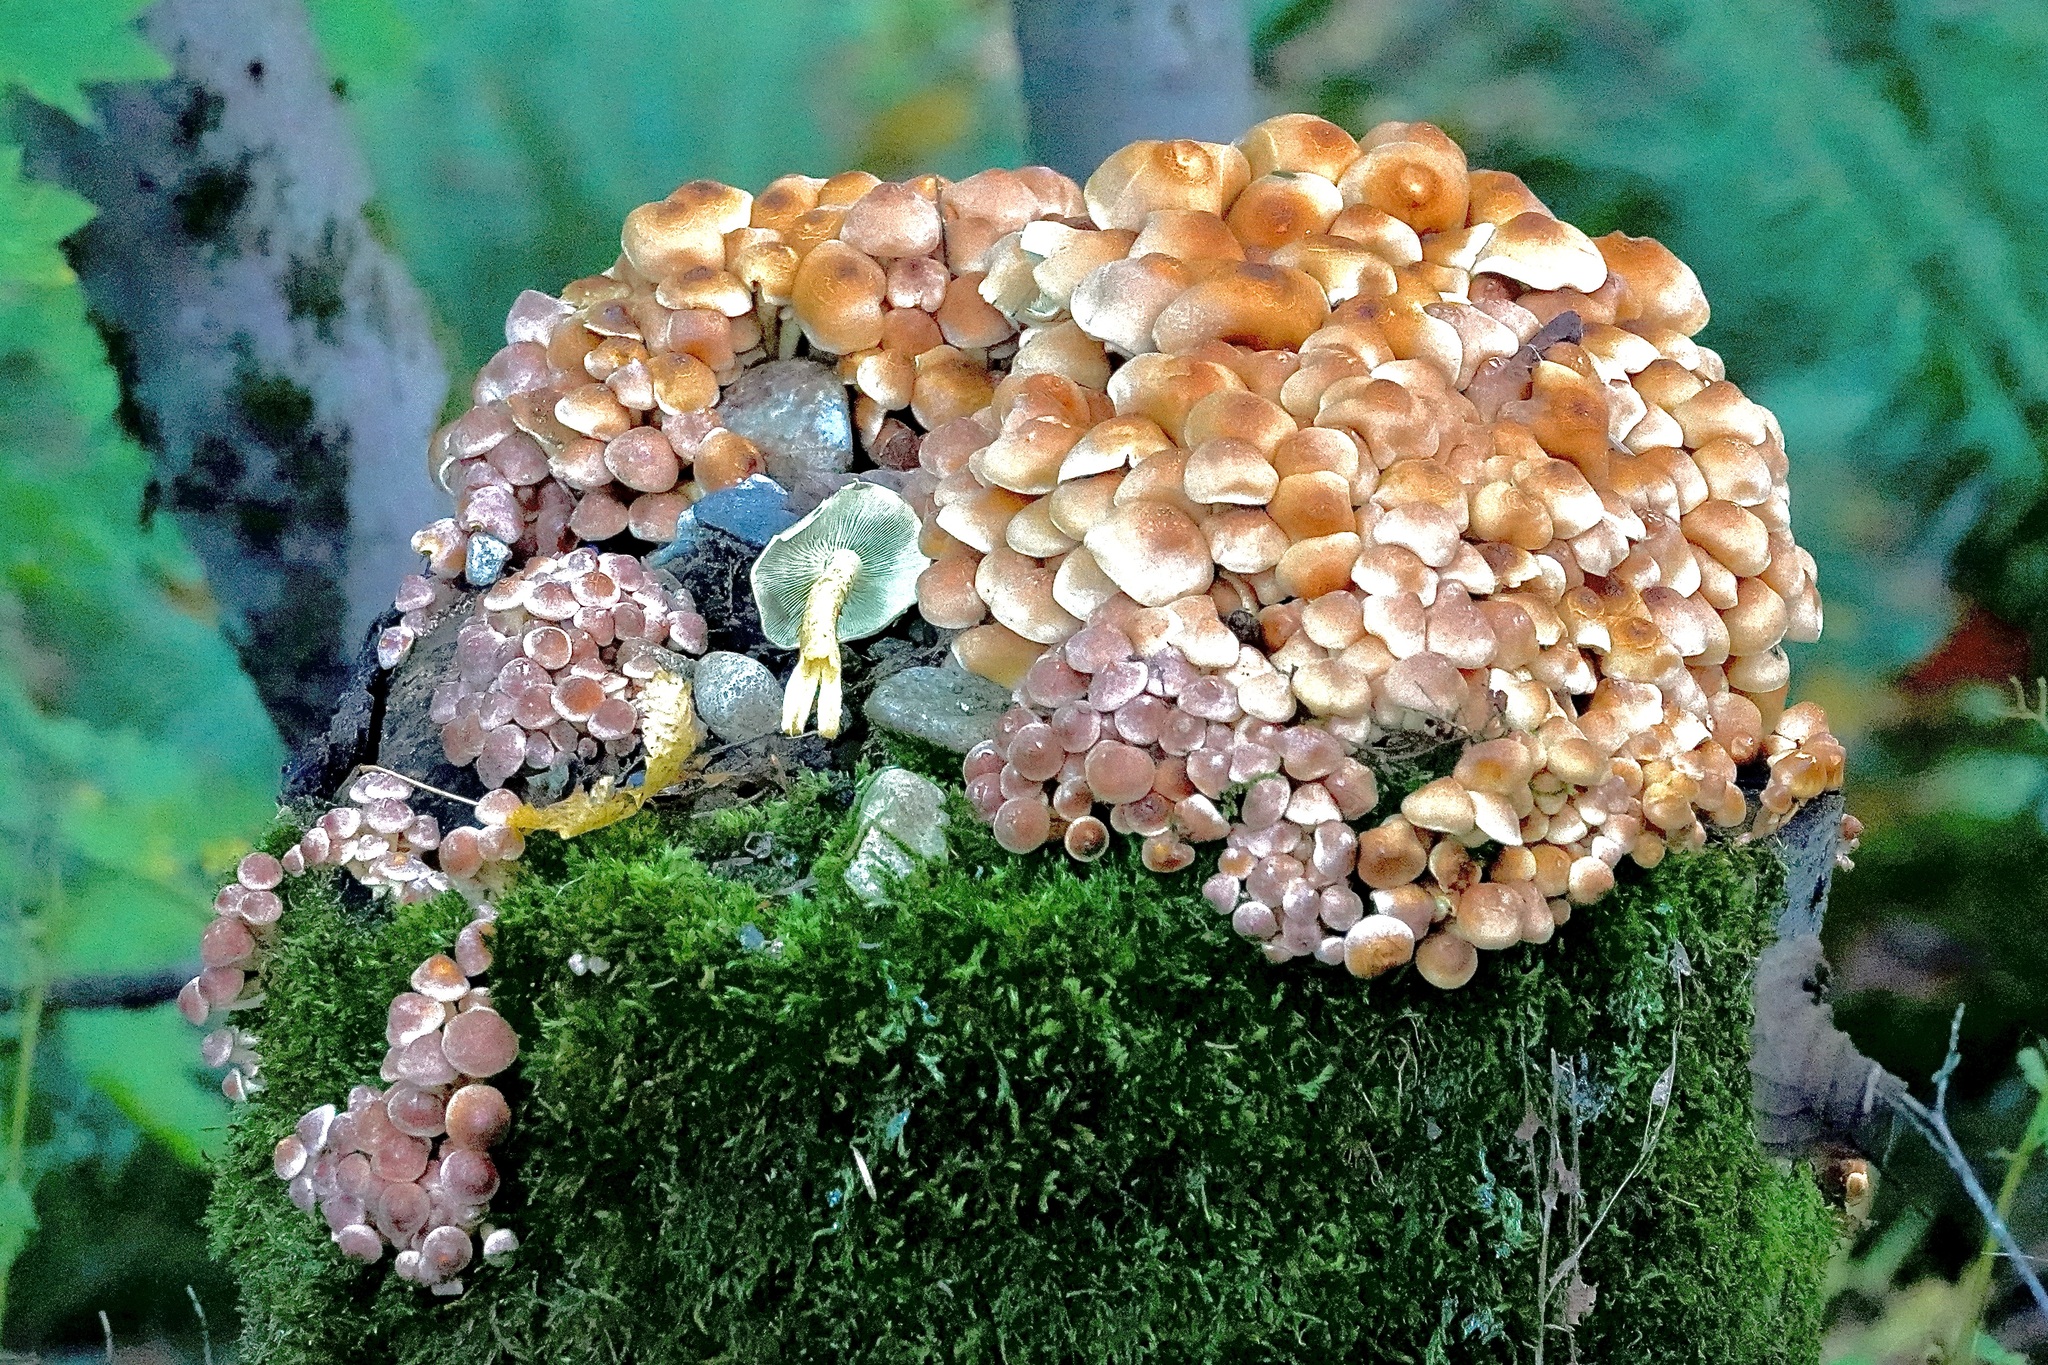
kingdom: Fungi
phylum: Basidiomycota
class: Agaricomycetes
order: Agaricales
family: Strophariaceae
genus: Hypholoma
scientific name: Hypholoma fasciculare
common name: Sulphur tuft
